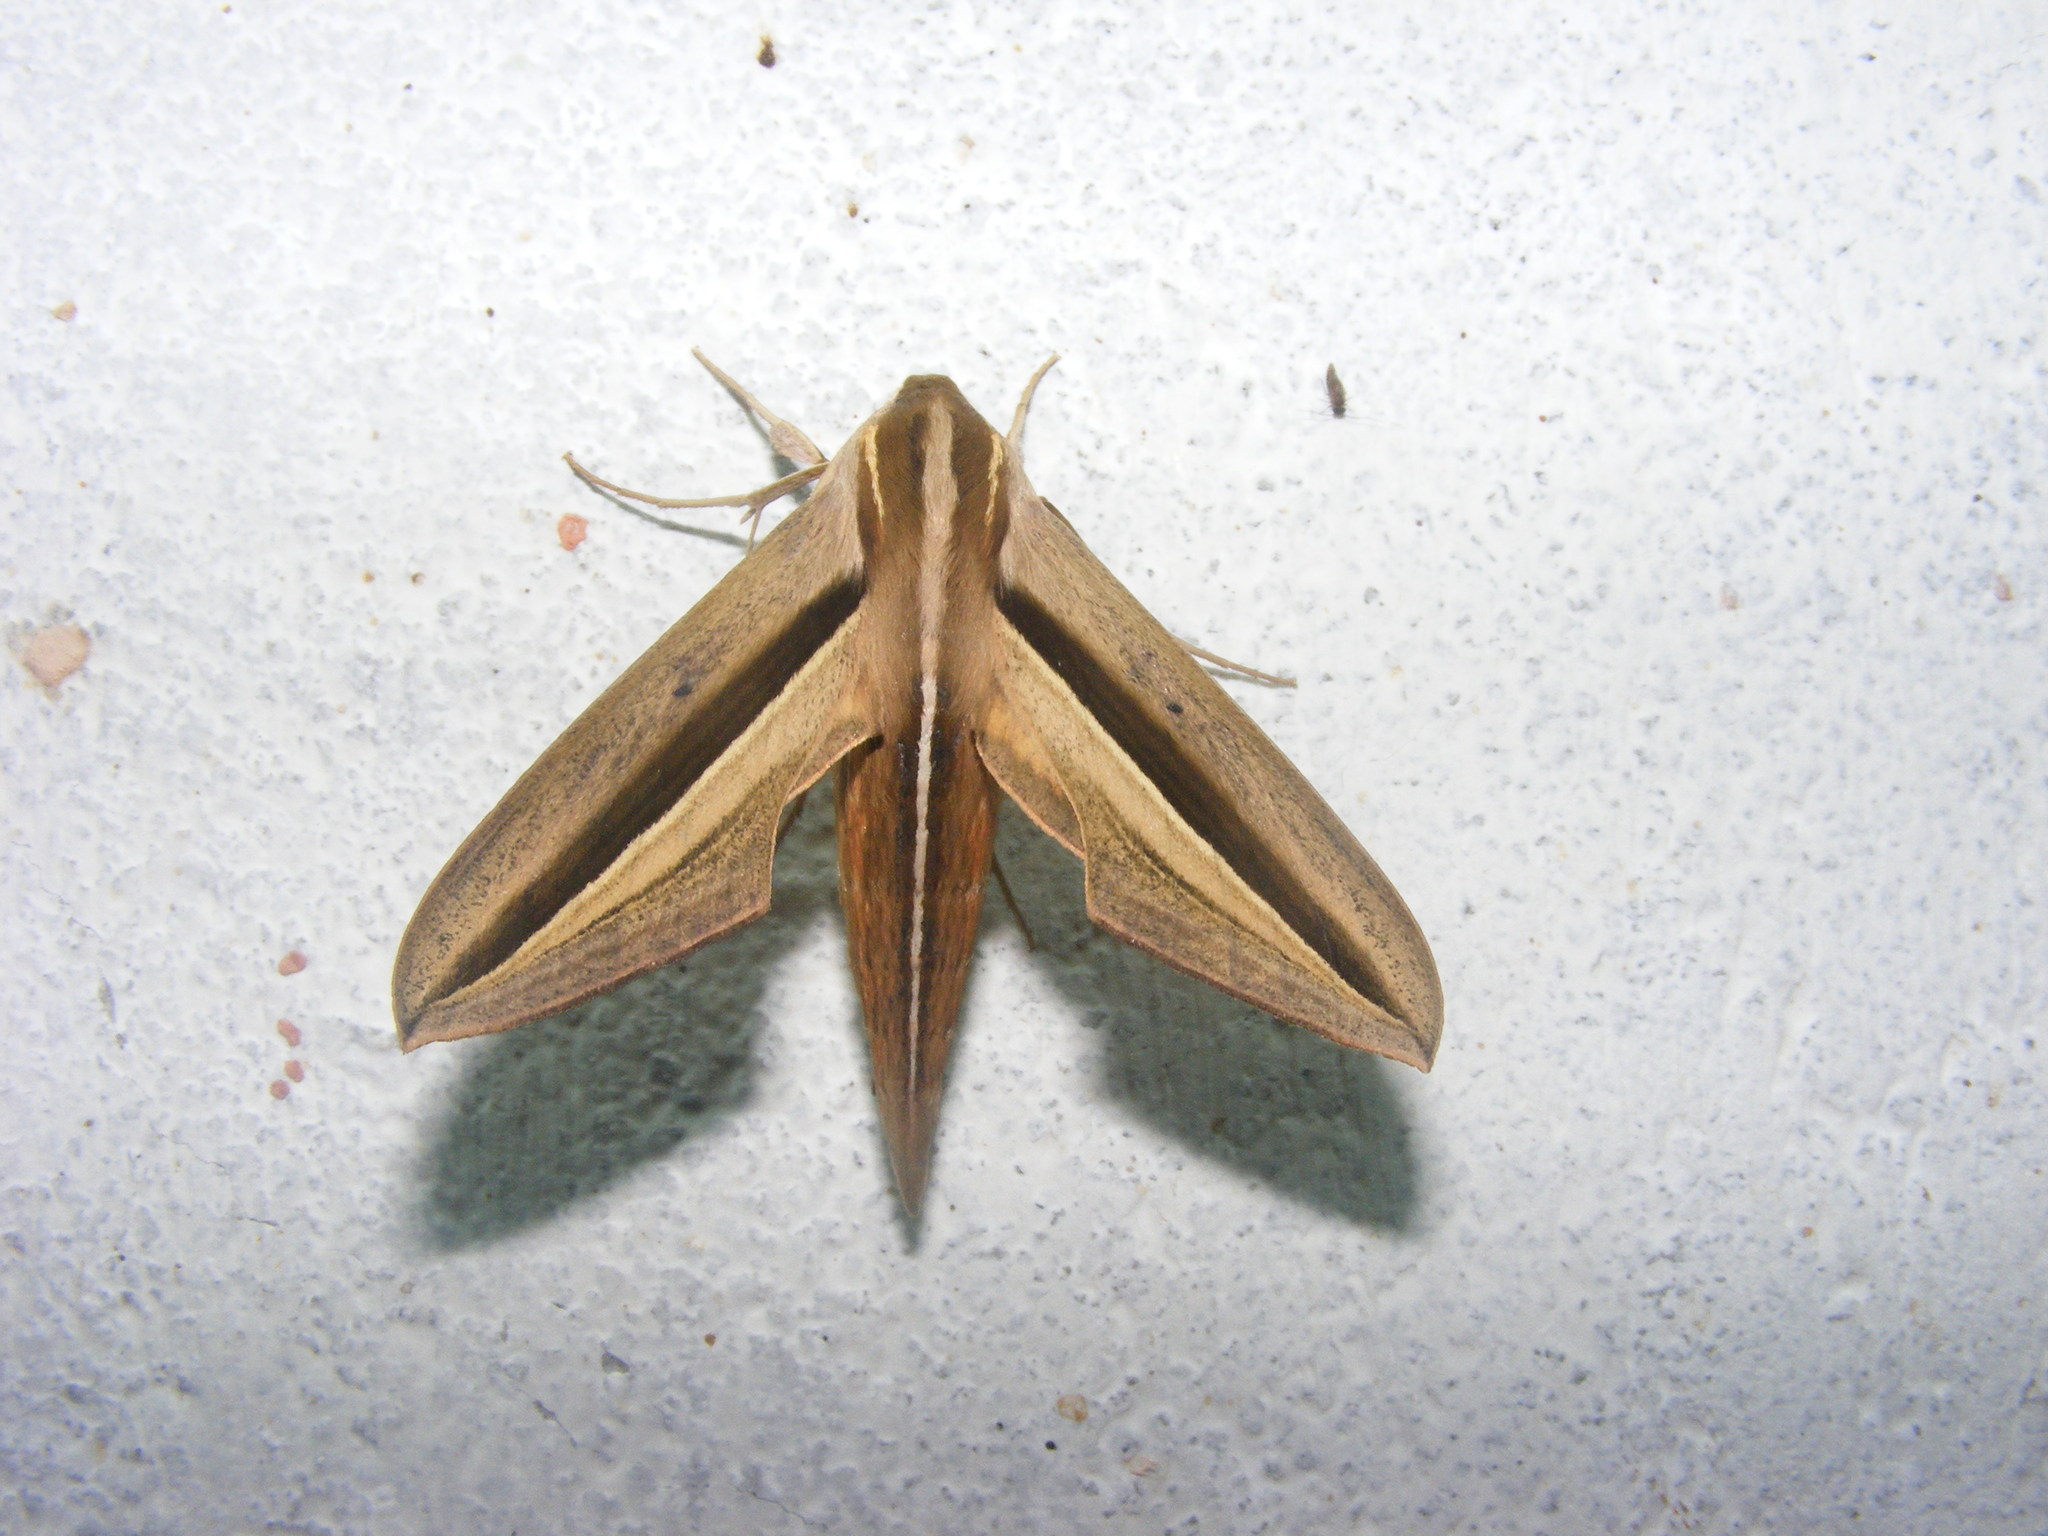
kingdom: Animalia
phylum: Arthropoda
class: Insecta
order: Lepidoptera
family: Sphingidae
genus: Theretra
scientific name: Theretra silhetensis
